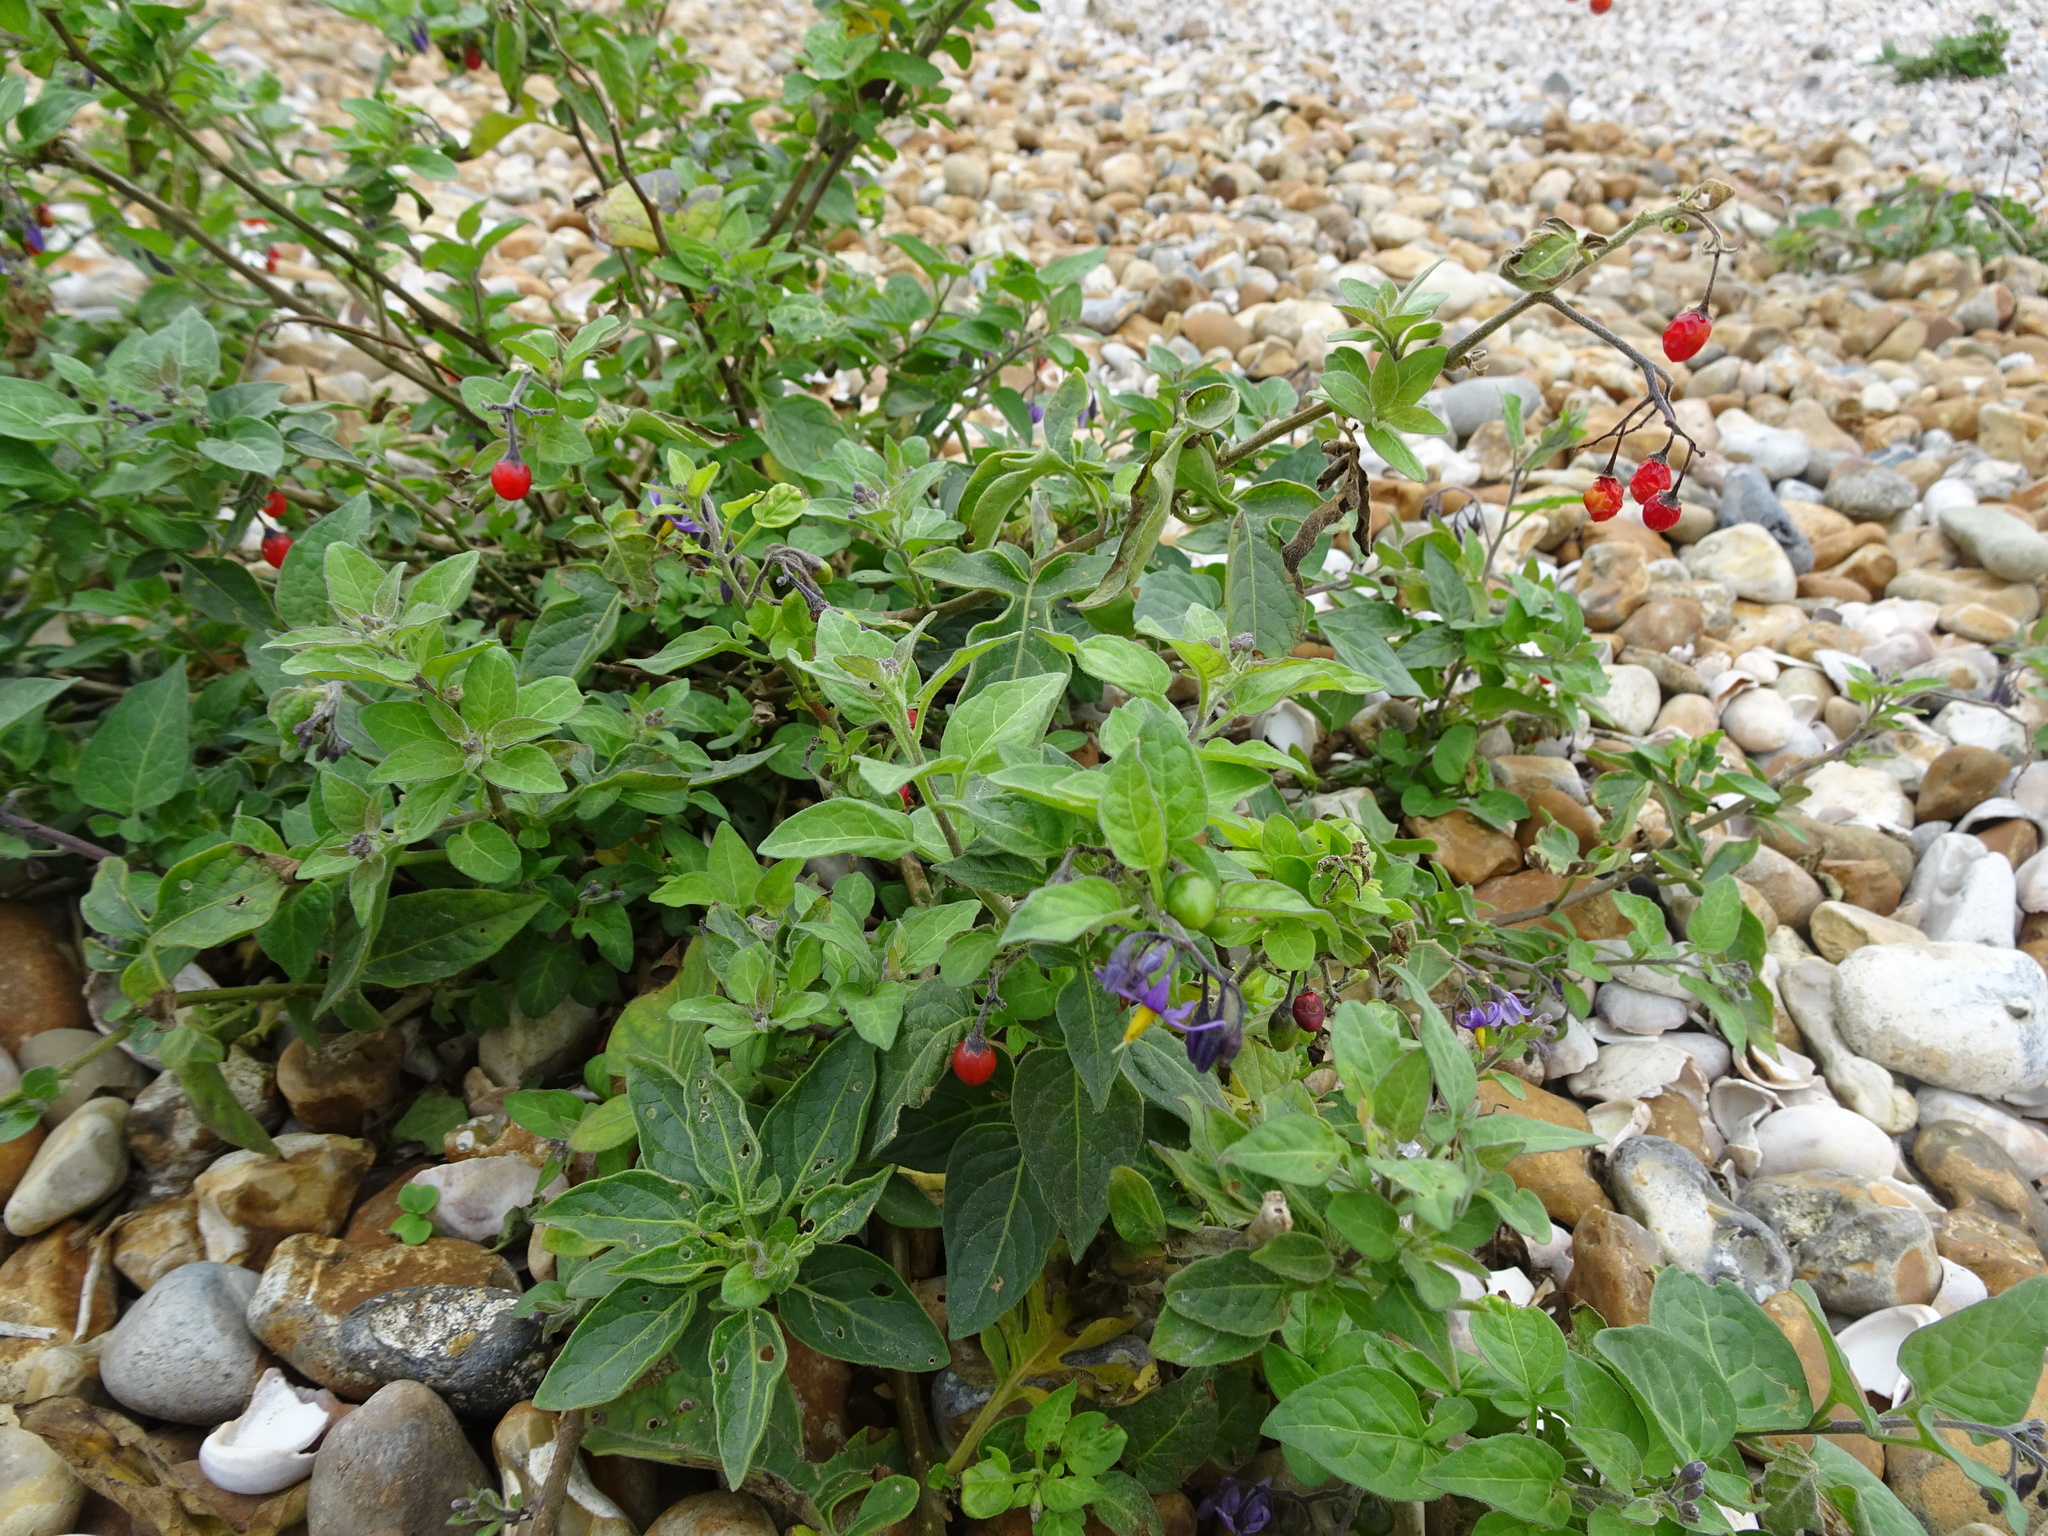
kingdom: Plantae
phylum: Tracheophyta
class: Magnoliopsida
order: Solanales
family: Solanaceae
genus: Solanum
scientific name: Solanum dulcamara
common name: Climbing nightshade
